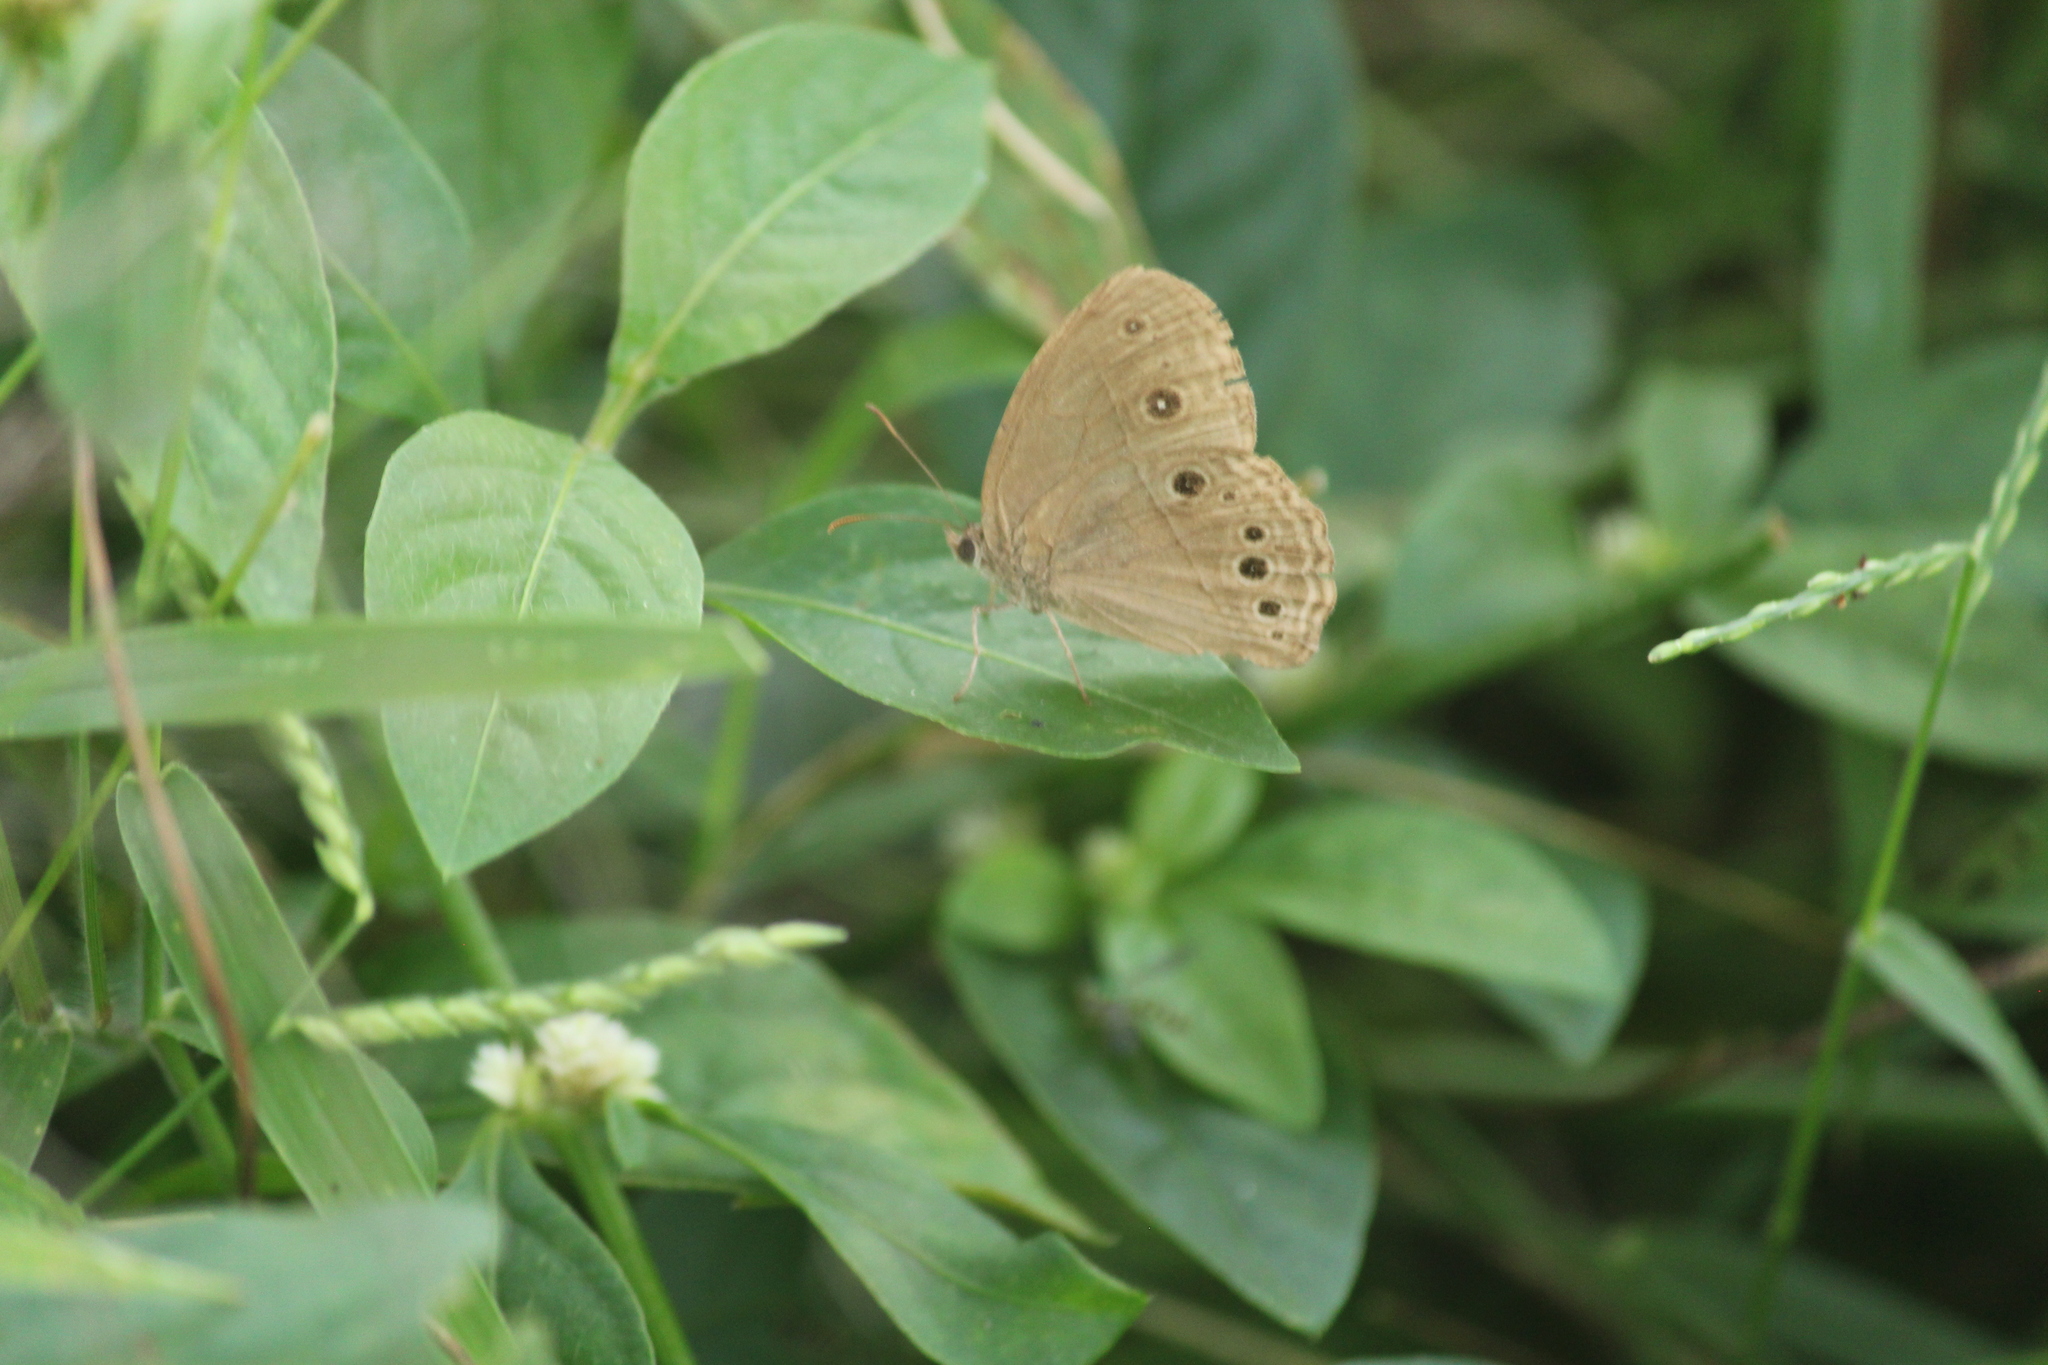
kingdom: Animalia
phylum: Arthropoda
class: Insecta
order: Lepidoptera
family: Nymphalidae
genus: Mycalesis
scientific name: Mycalesis mineus
